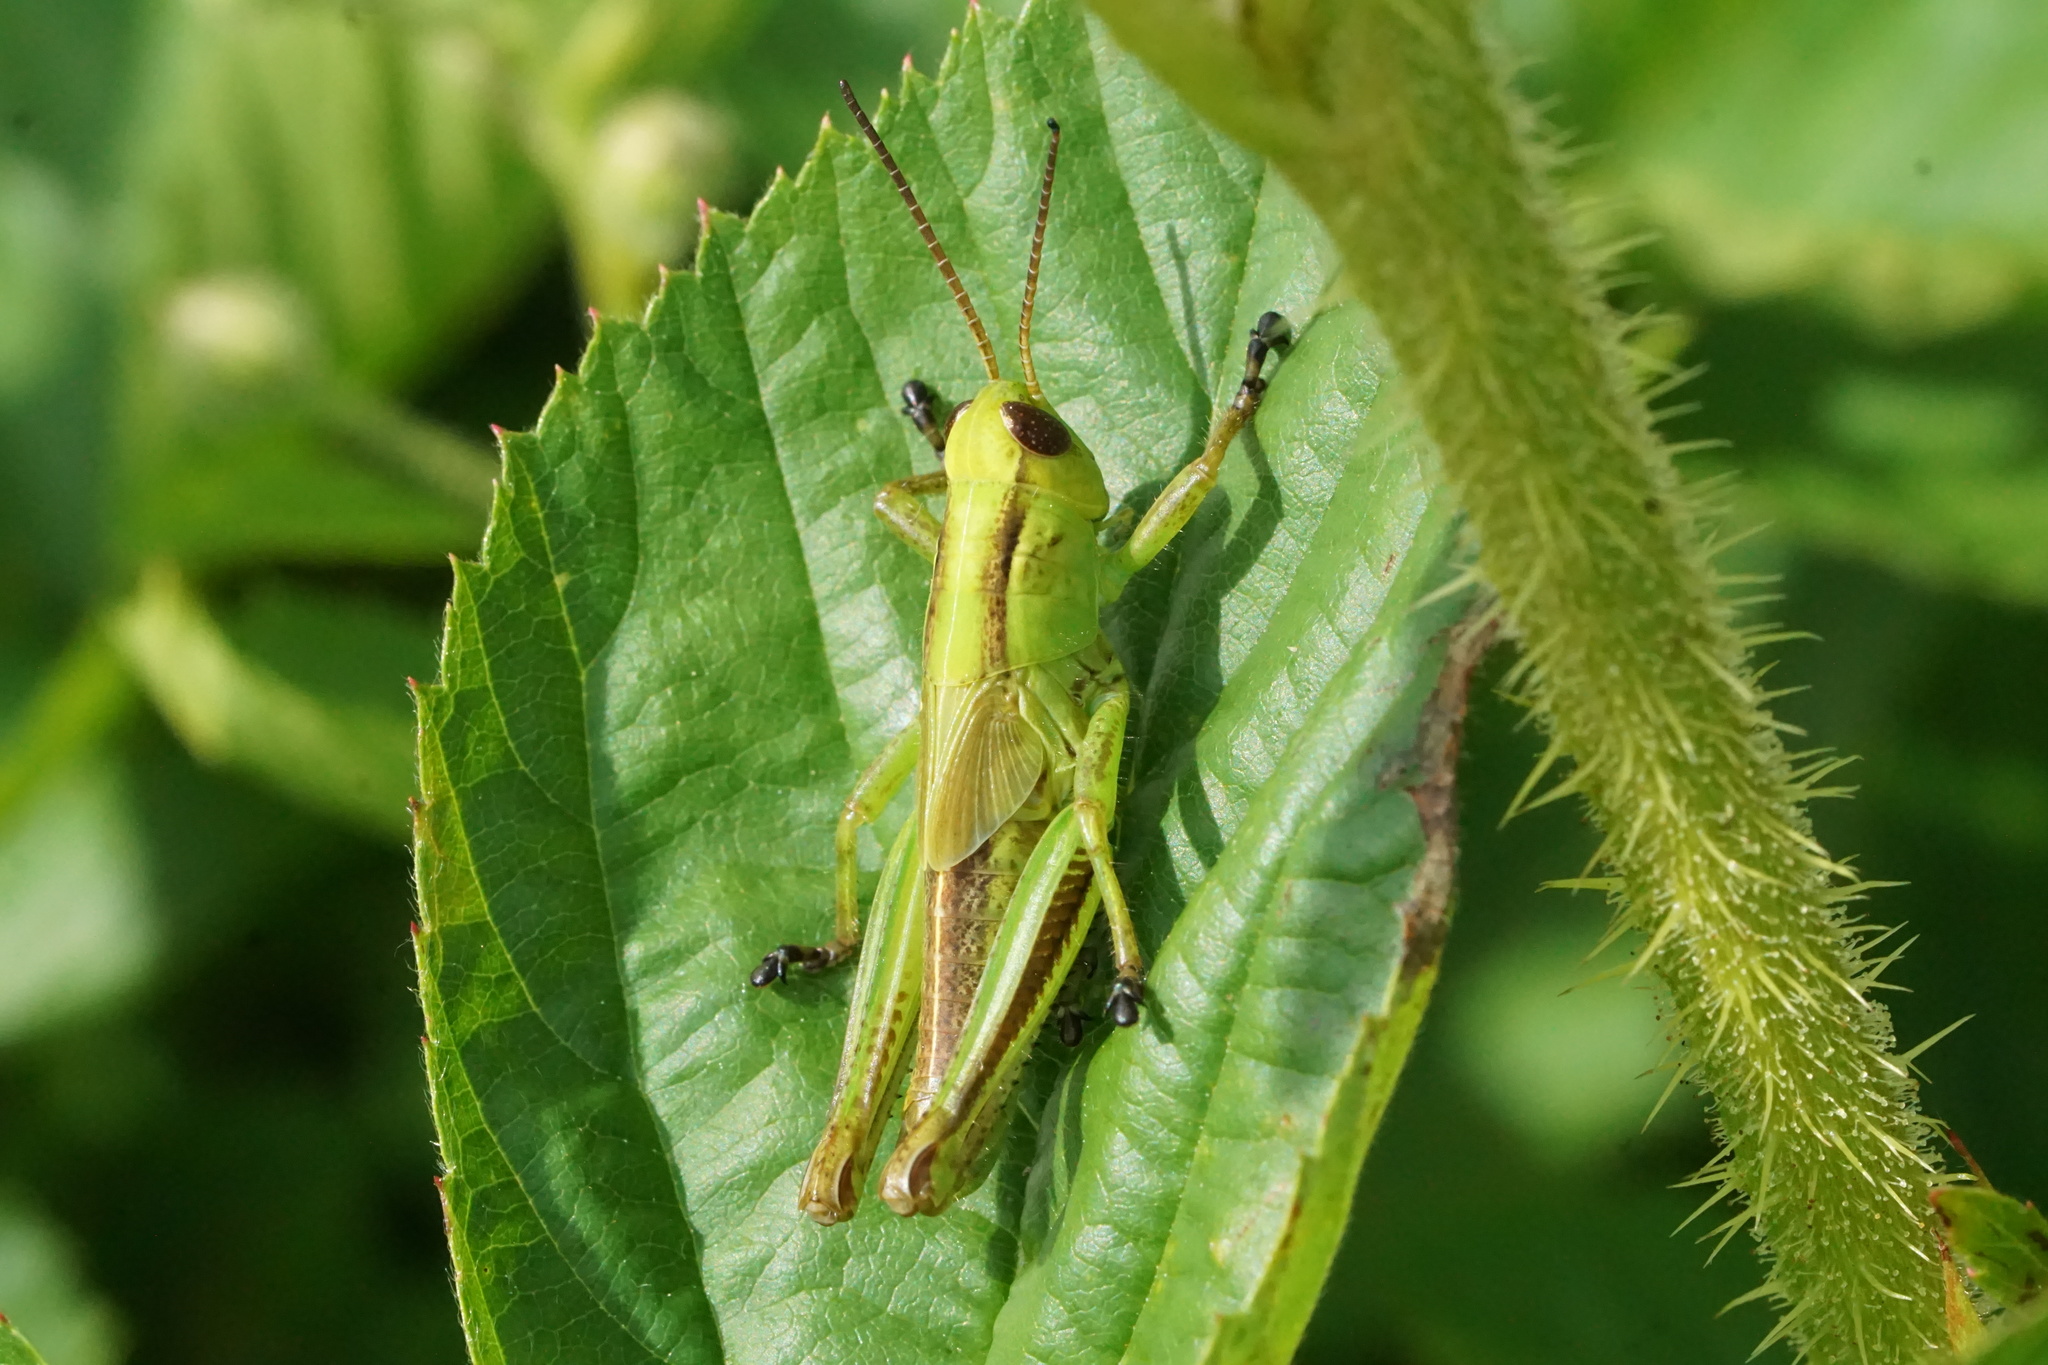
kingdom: Animalia
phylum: Arthropoda
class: Insecta
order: Orthoptera
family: Acrididae
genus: Melanoplus
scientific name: Melanoplus bivittatus
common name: Two-striped grasshopper
